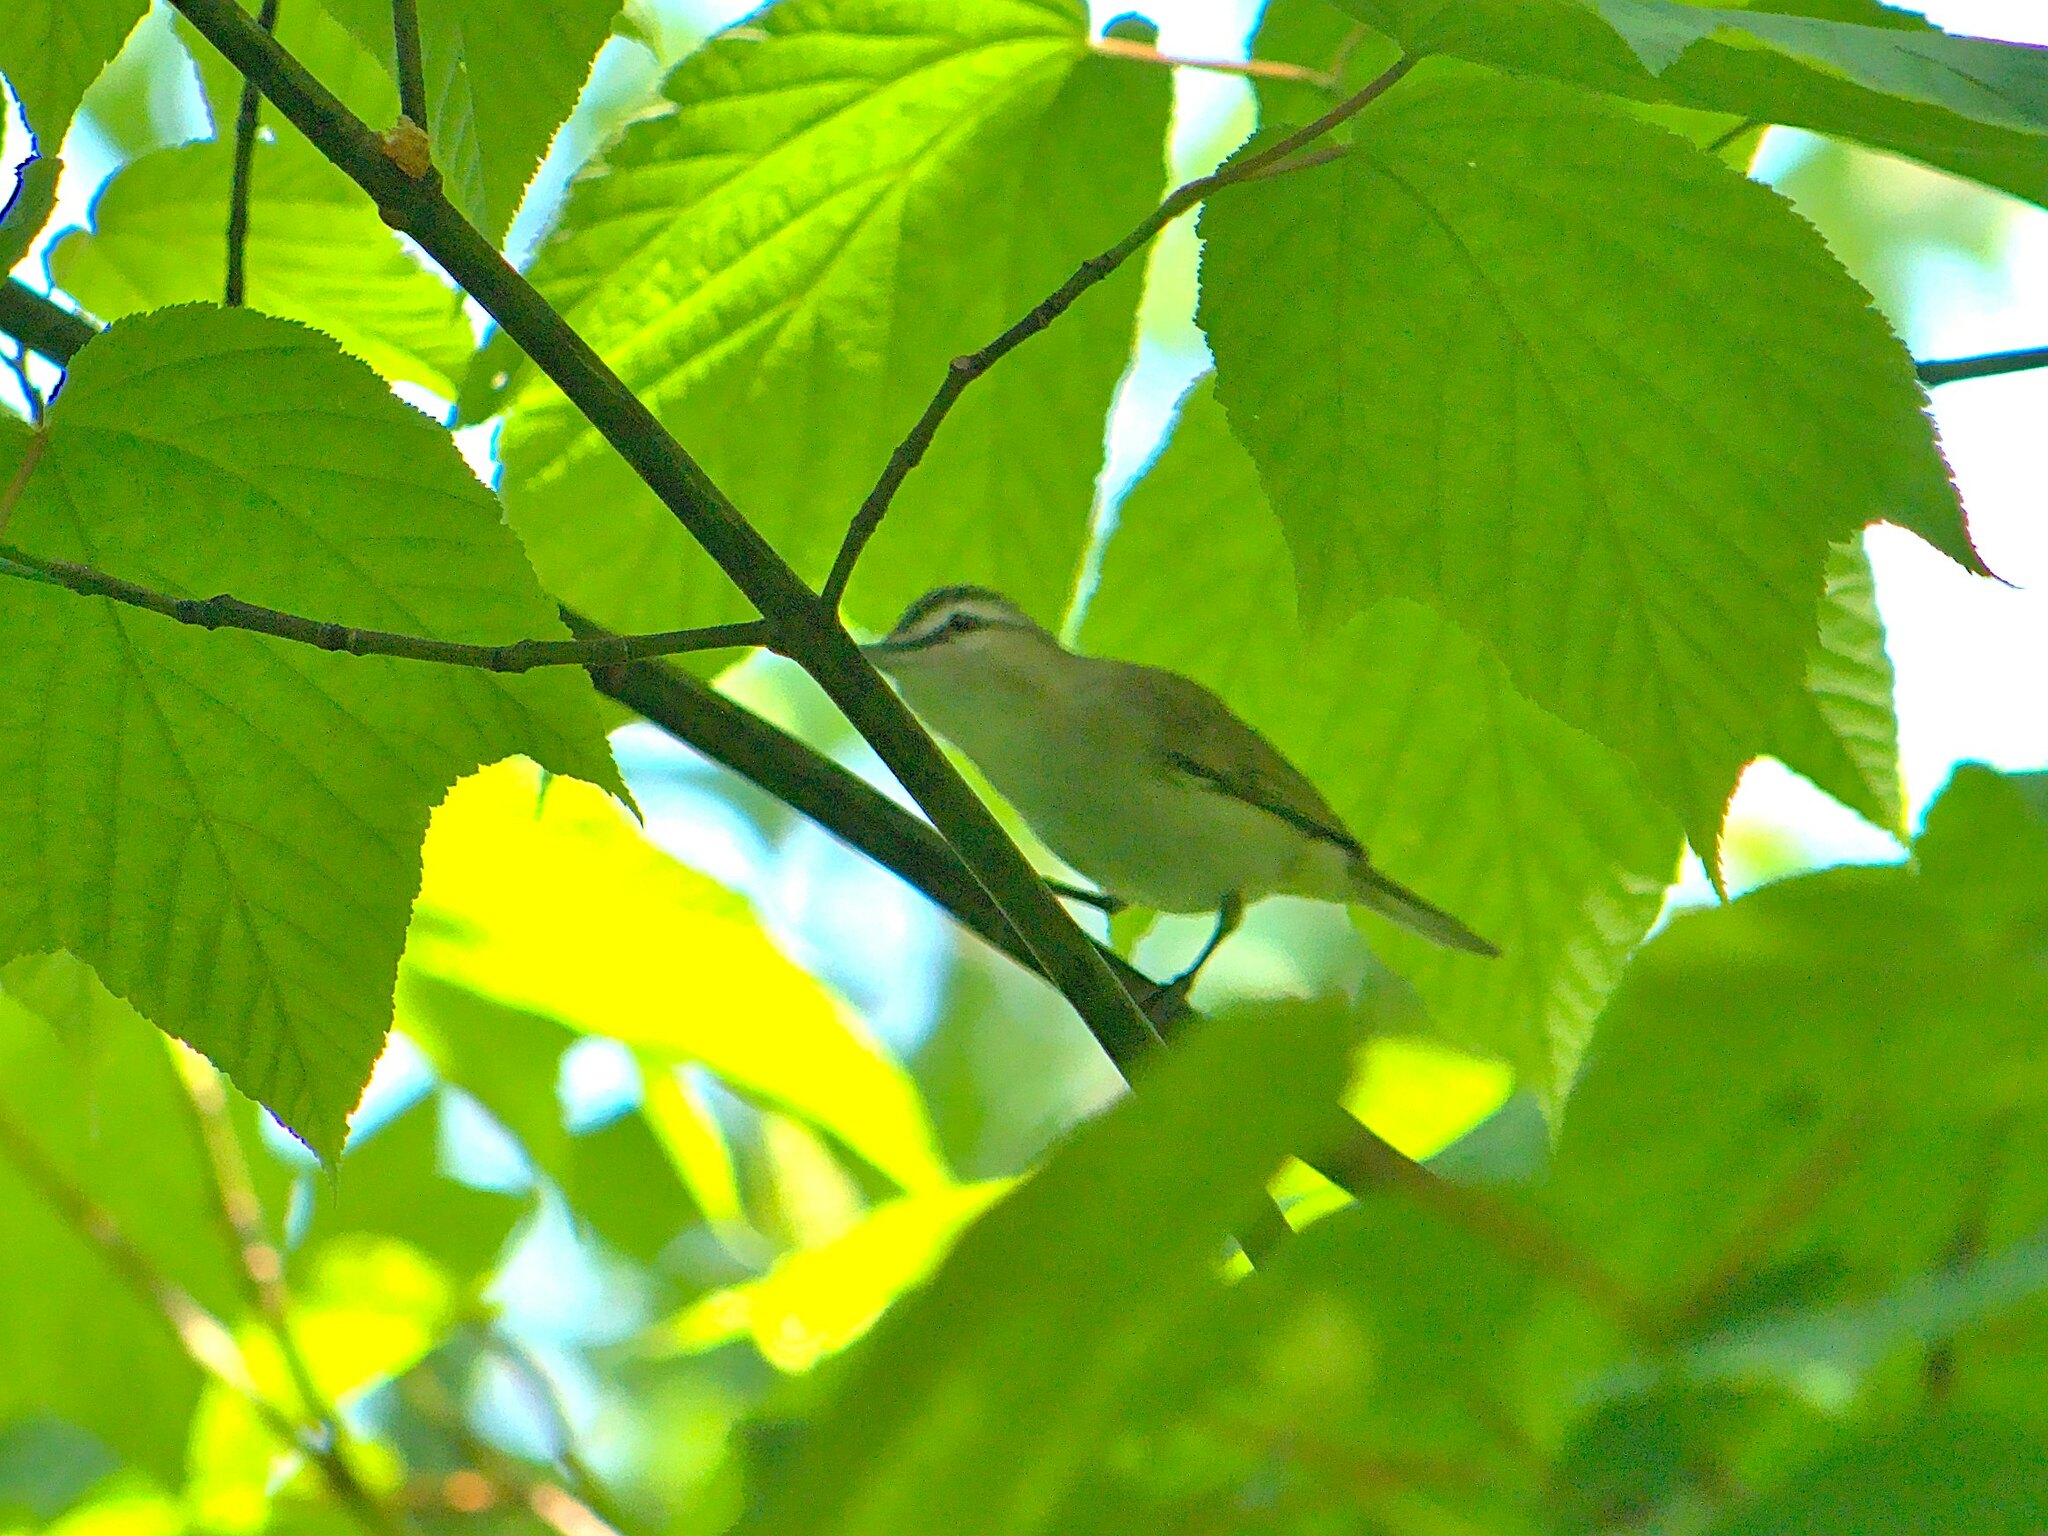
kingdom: Animalia
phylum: Chordata
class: Aves
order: Passeriformes
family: Vireonidae
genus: Vireo
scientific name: Vireo olivaceus
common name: Red-eyed vireo
